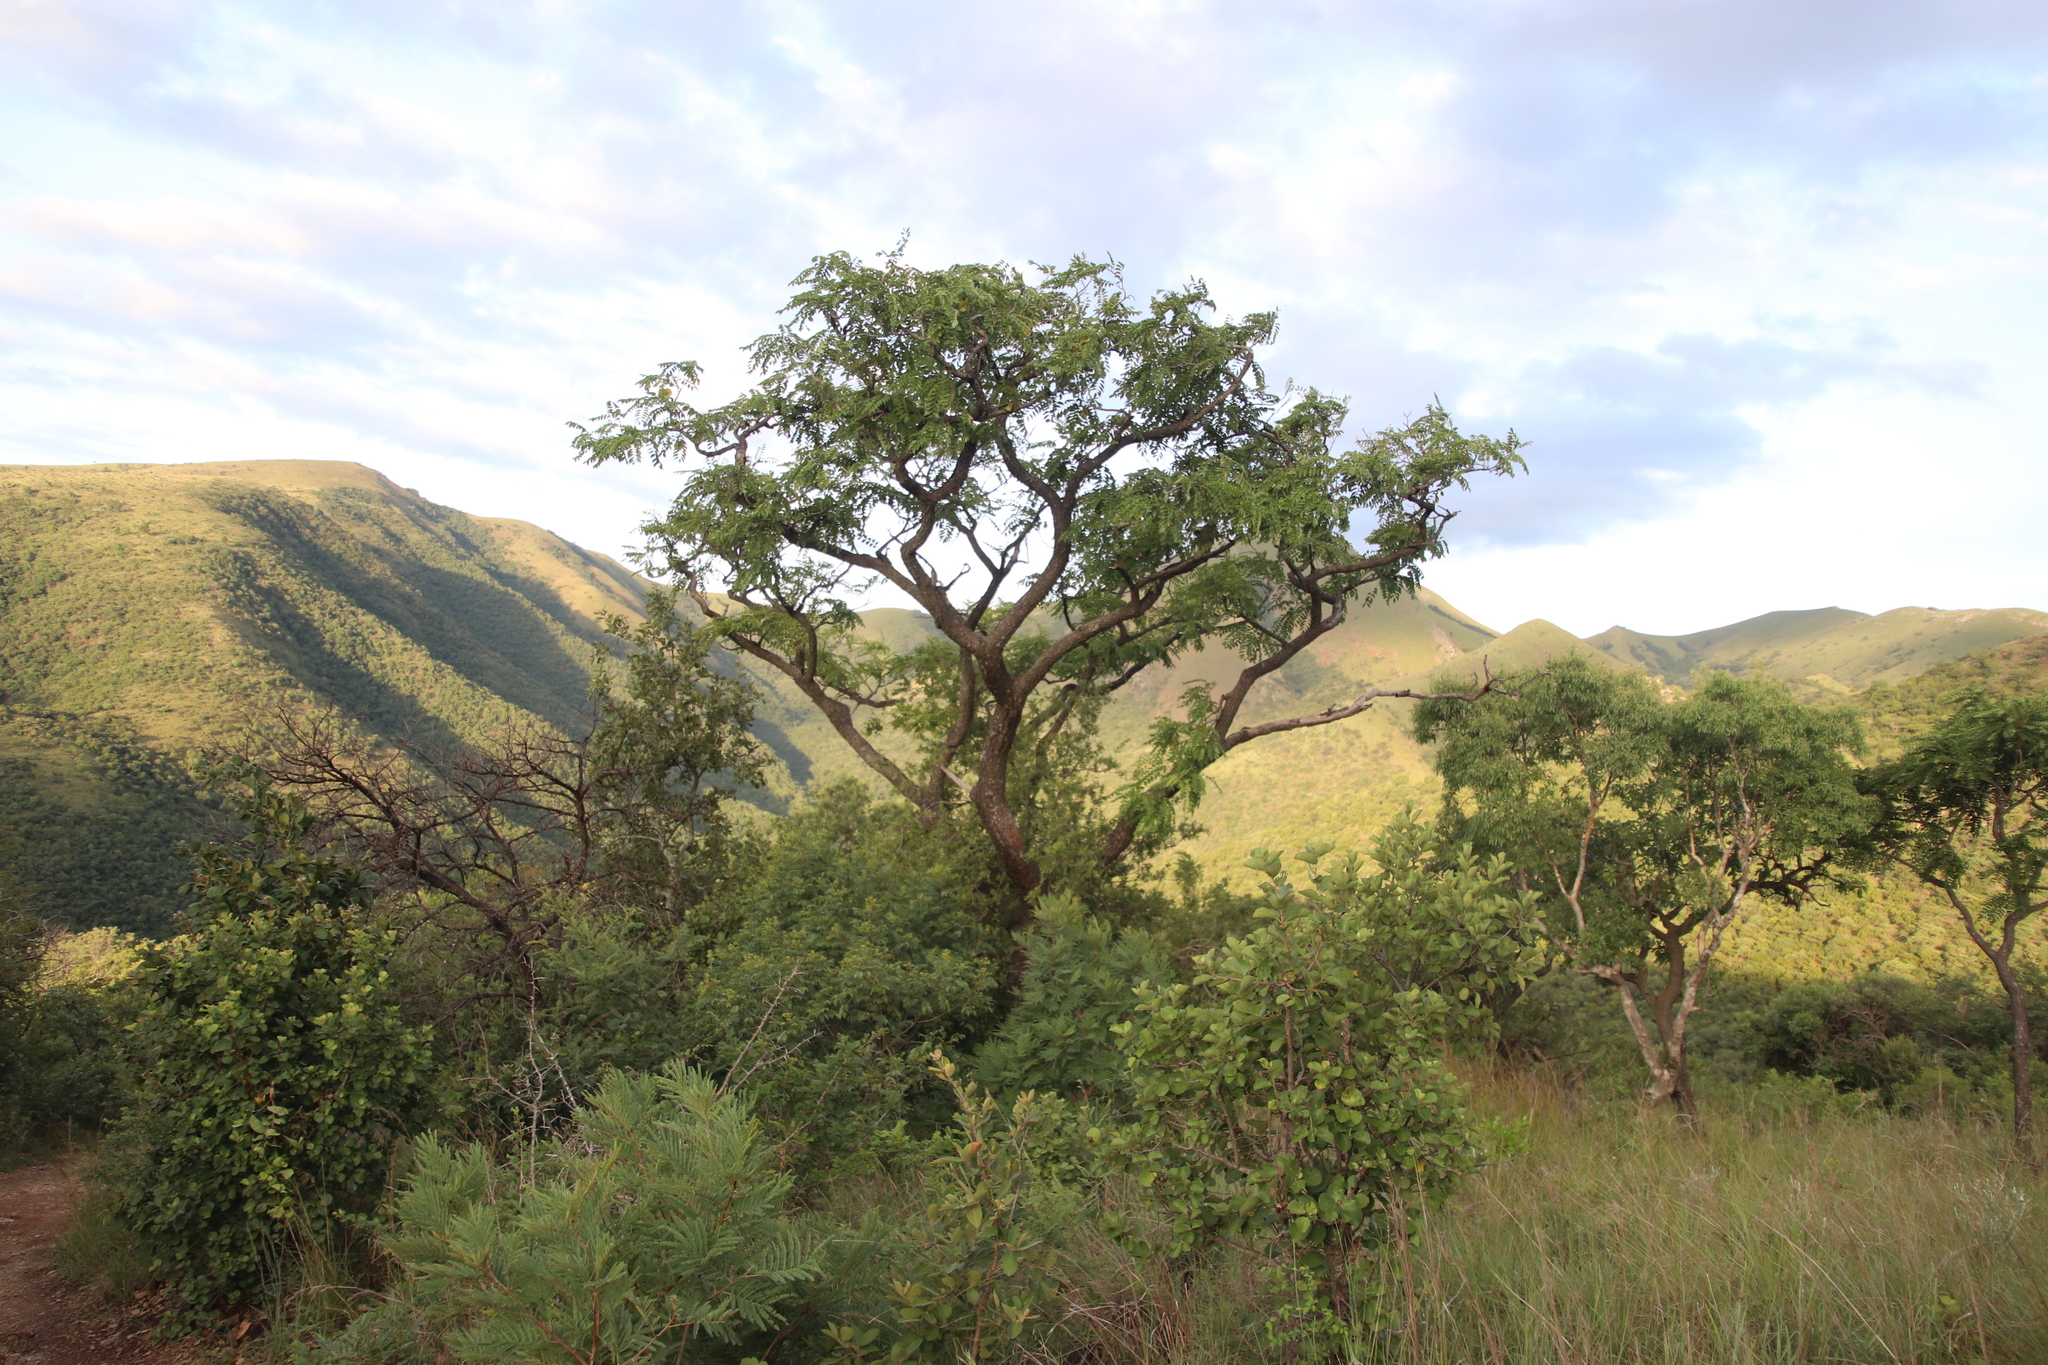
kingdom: Plantae
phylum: Tracheophyta
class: Magnoliopsida
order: Fabales
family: Fabaceae
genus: Pterocarpus
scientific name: Pterocarpus angolensis
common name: Bloodwood tree
